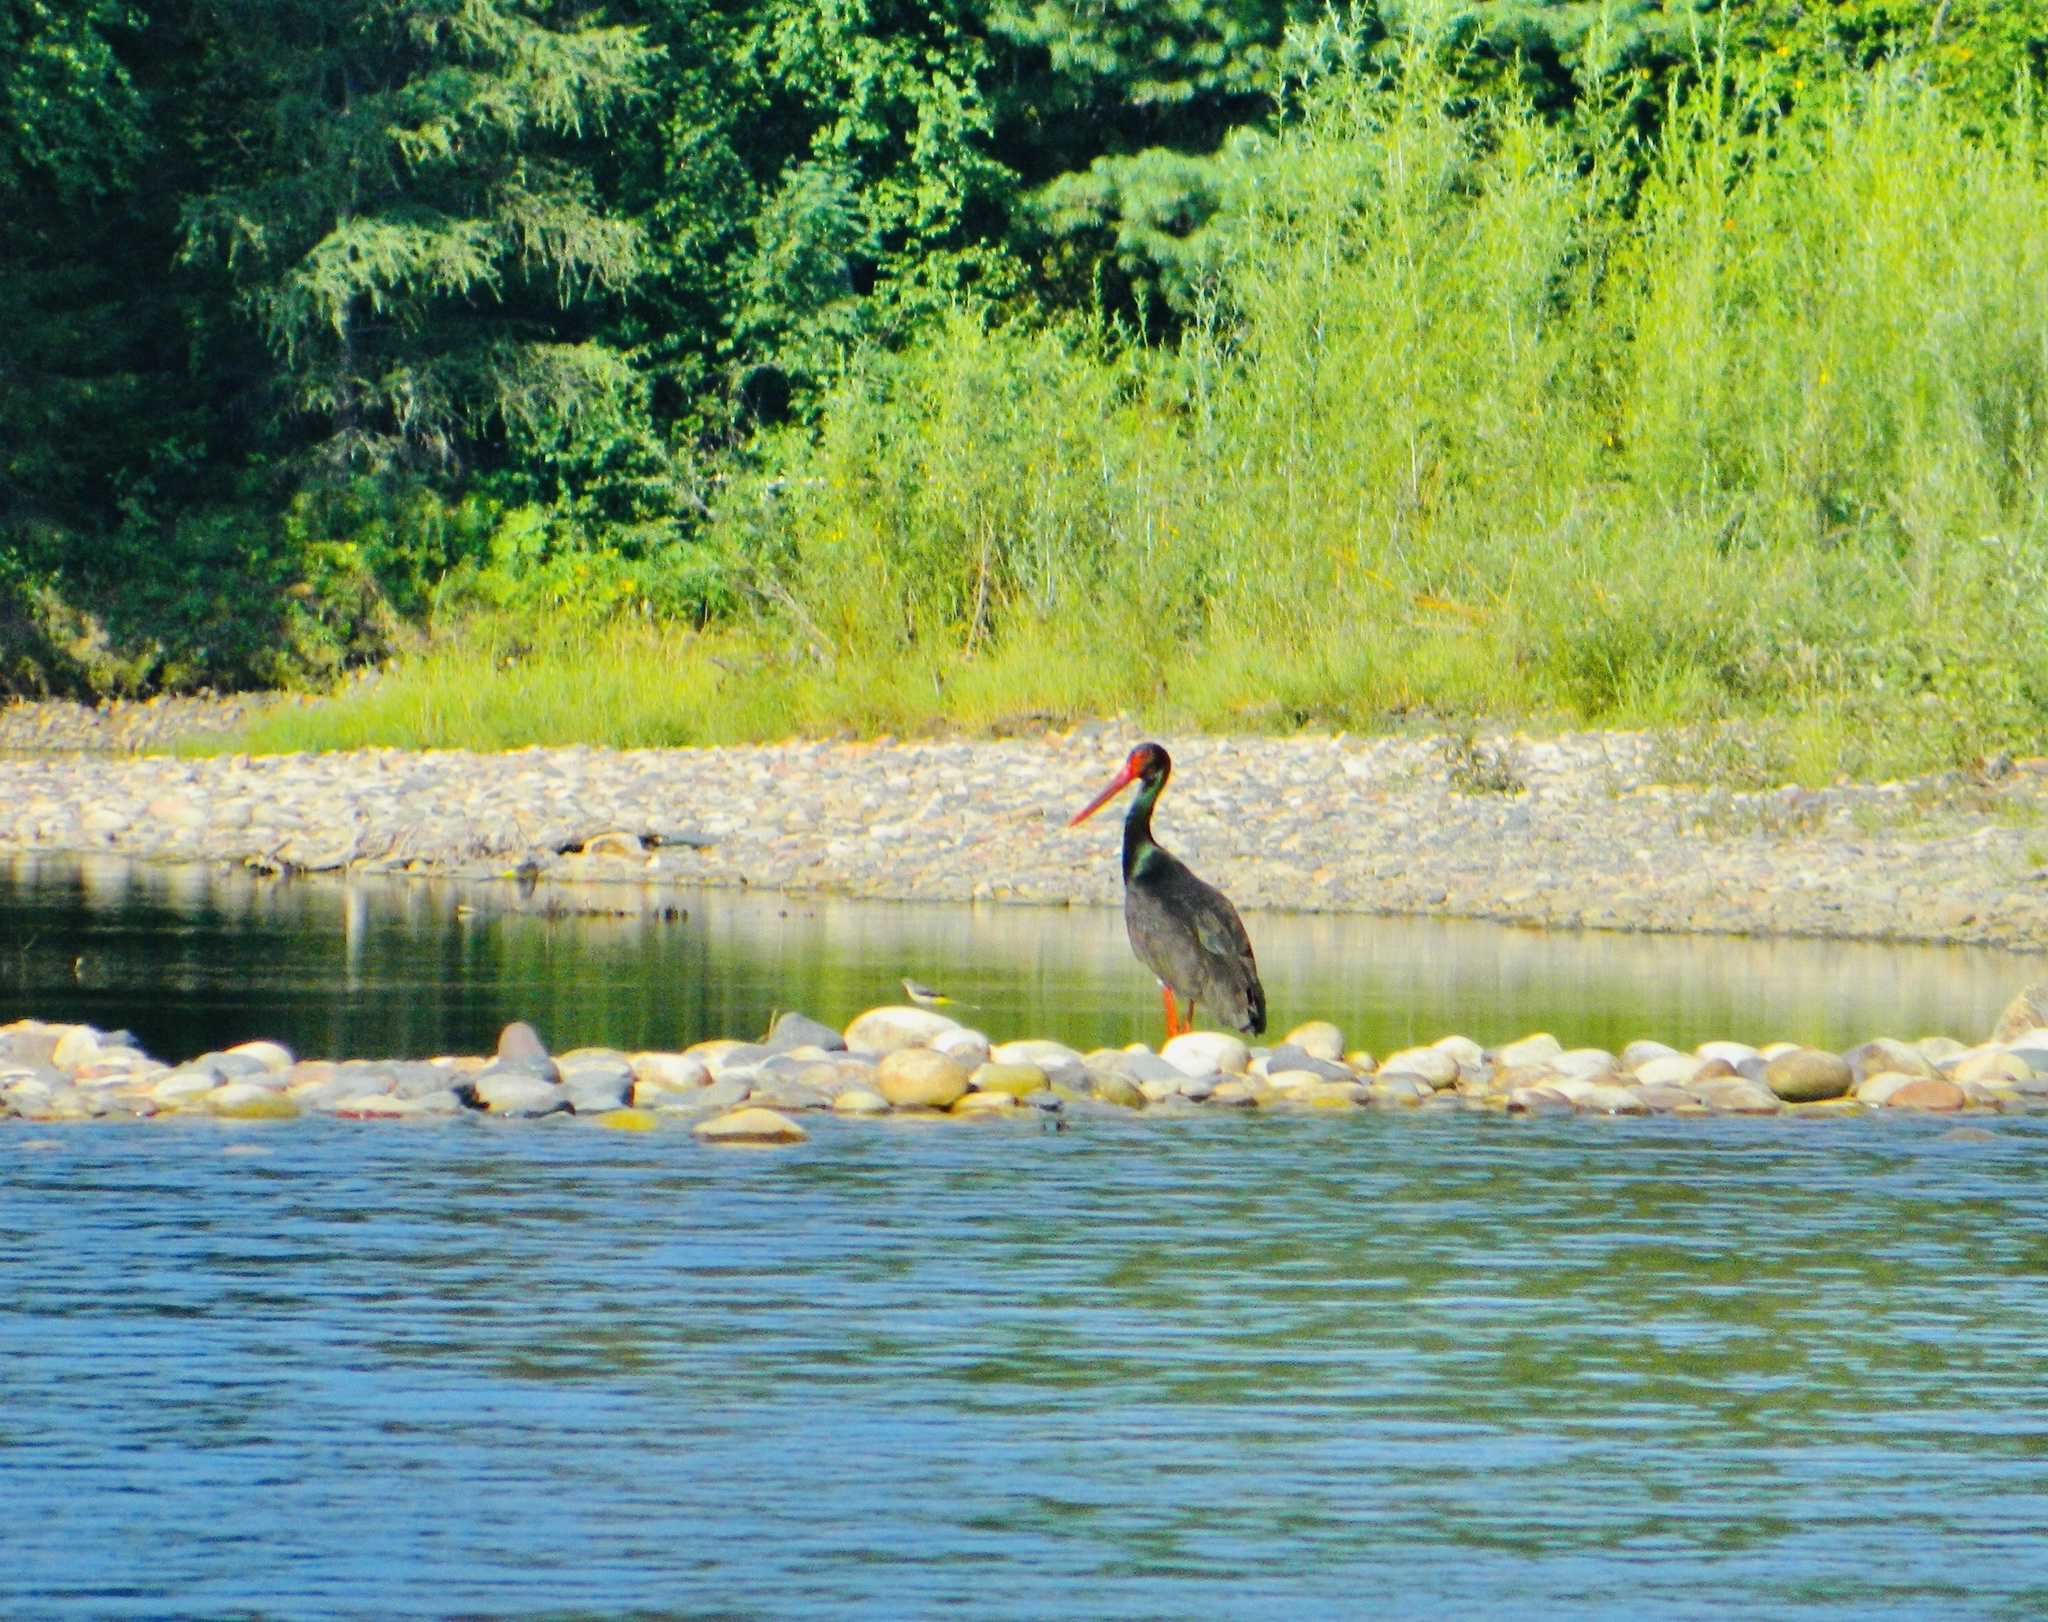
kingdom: Animalia
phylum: Chordata
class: Aves
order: Ciconiiformes
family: Ciconiidae
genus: Ciconia
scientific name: Ciconia nigra
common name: Black stork
